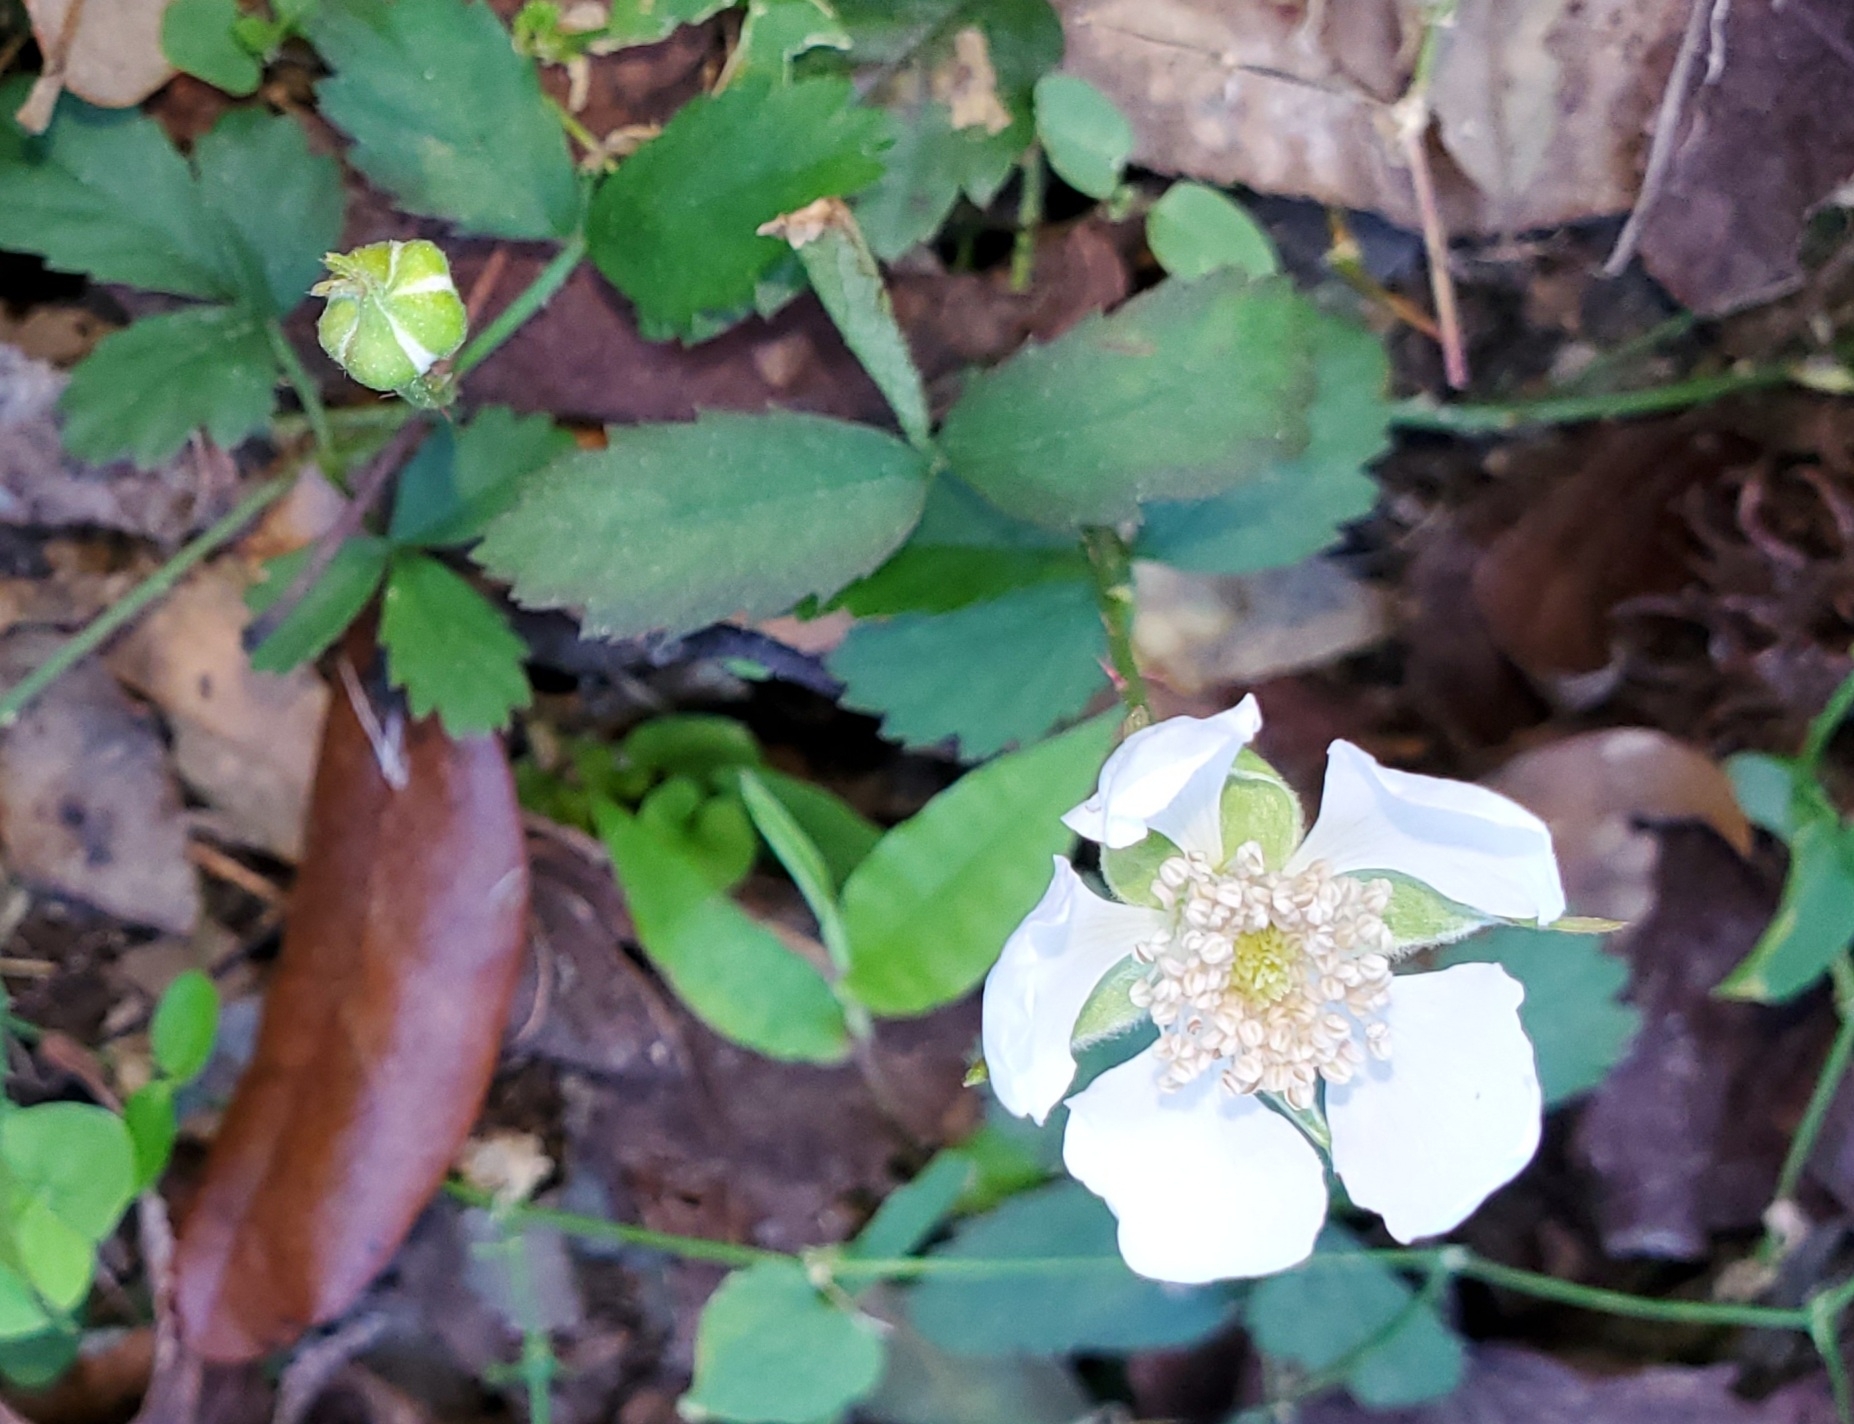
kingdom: Plantae
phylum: Tracheophyta
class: Magnoliopsida
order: Rosales
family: Rosaceae
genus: Rubus
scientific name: Rubus trivialis
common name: Southern dewberry
